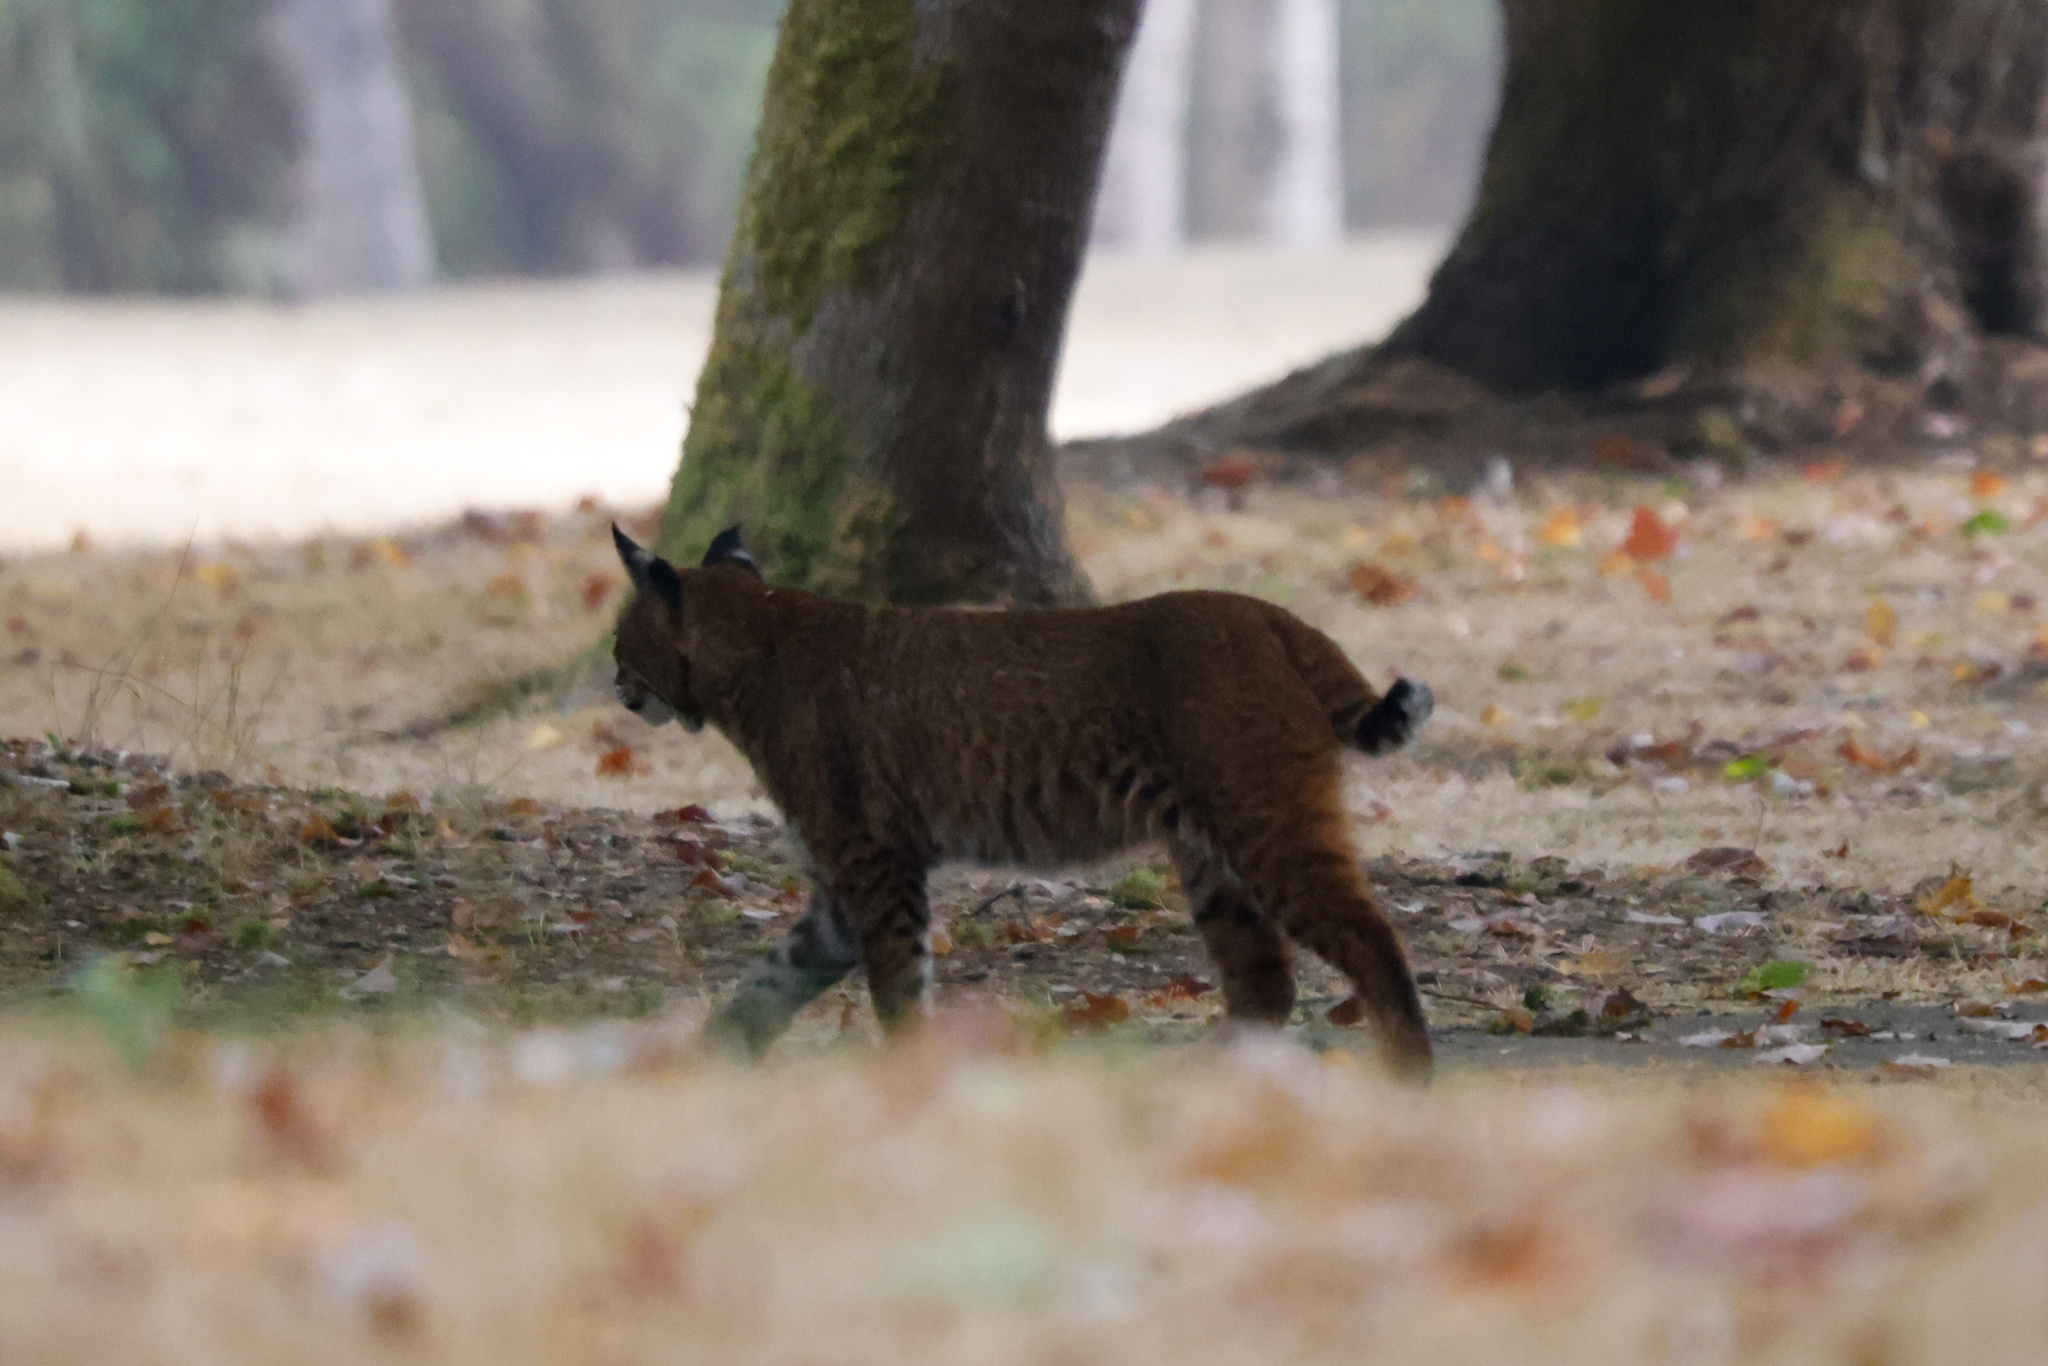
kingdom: Animalia
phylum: Chordata
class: Mammalia
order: Carnivora
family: Felidae
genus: Lynx
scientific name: Lynx rufus
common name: Bobcat
